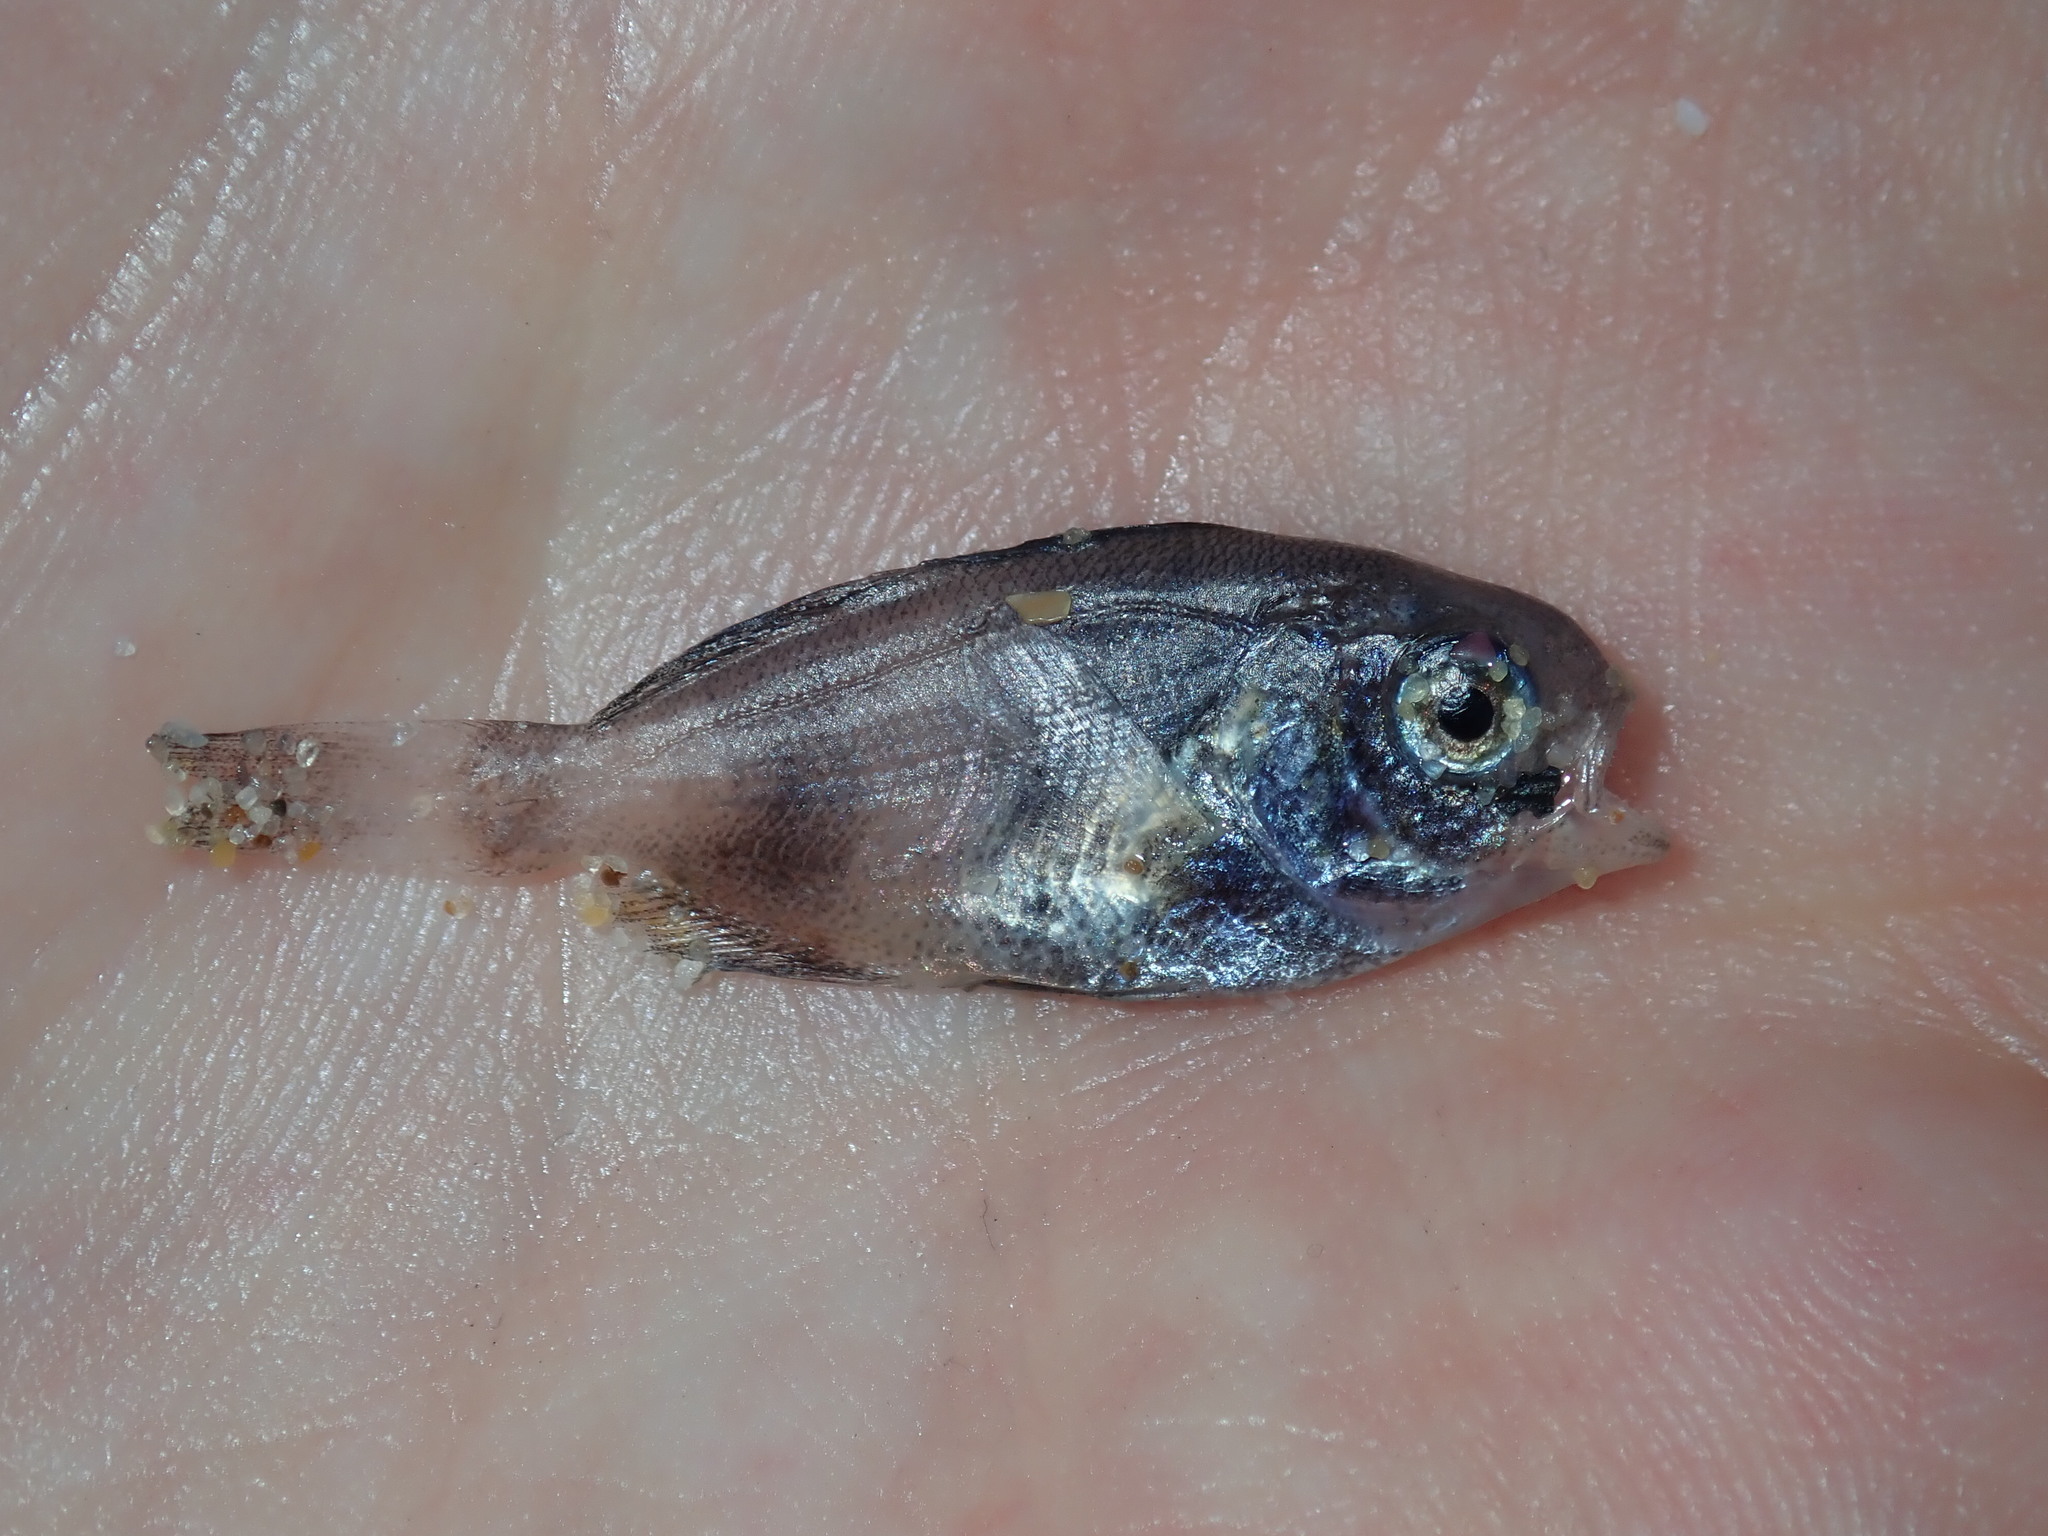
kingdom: Animalia
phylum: Chordata
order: Perciformes
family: Nomeidae
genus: Cubiceps
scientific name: Cubiceps whiteleggii
